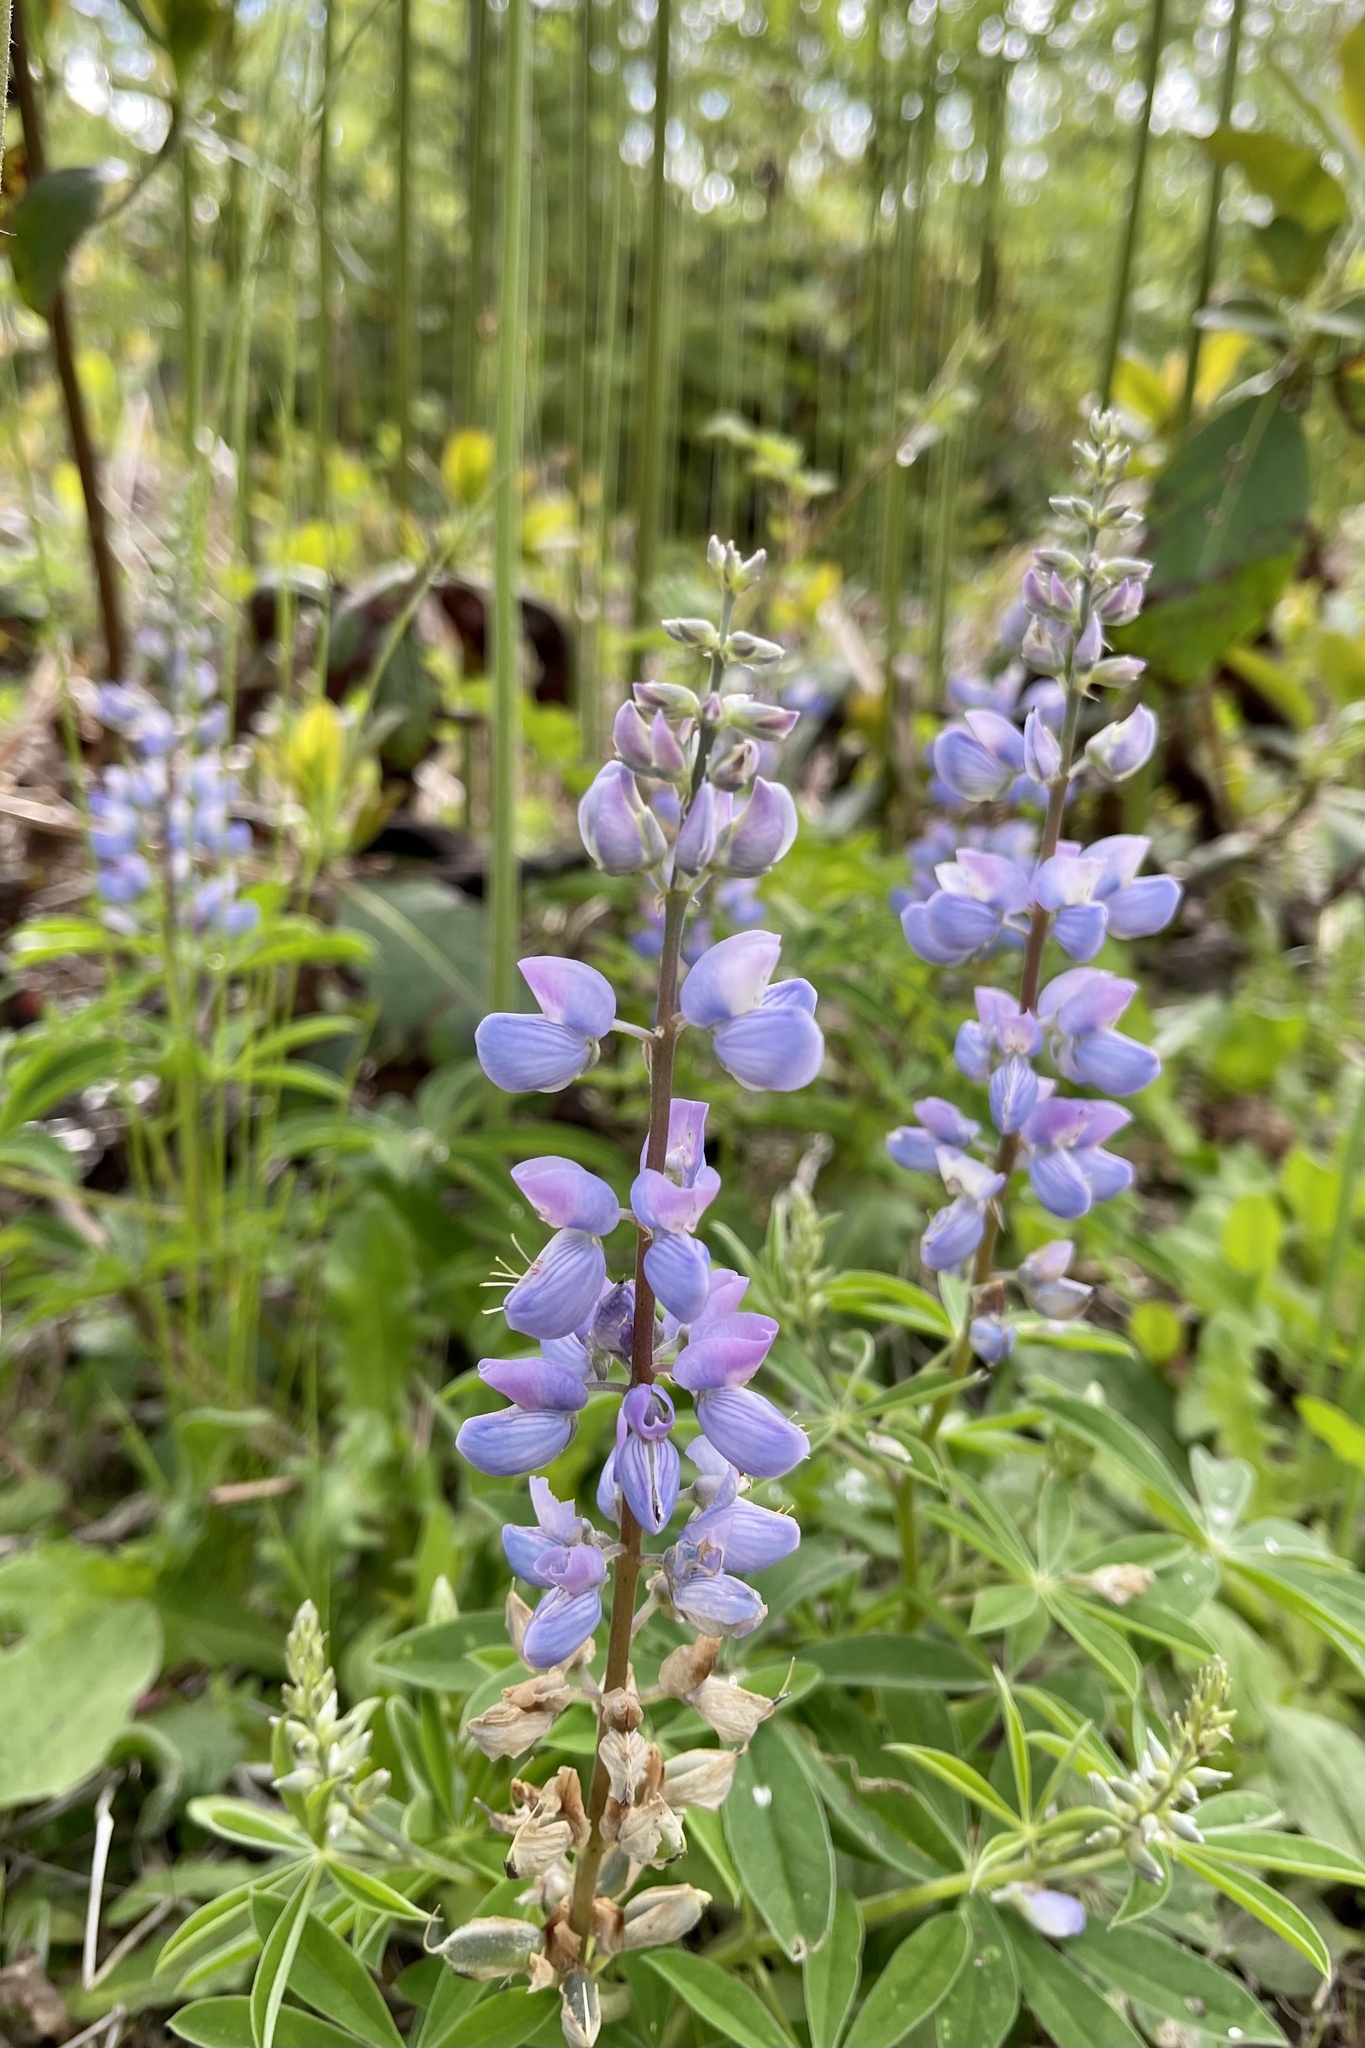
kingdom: Plantae
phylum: Tracheophyta
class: Magnoliopsida
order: Fabales
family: Fabaceae
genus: Lupinus
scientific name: Lupinus latifolius
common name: Broad-leaved lupine
